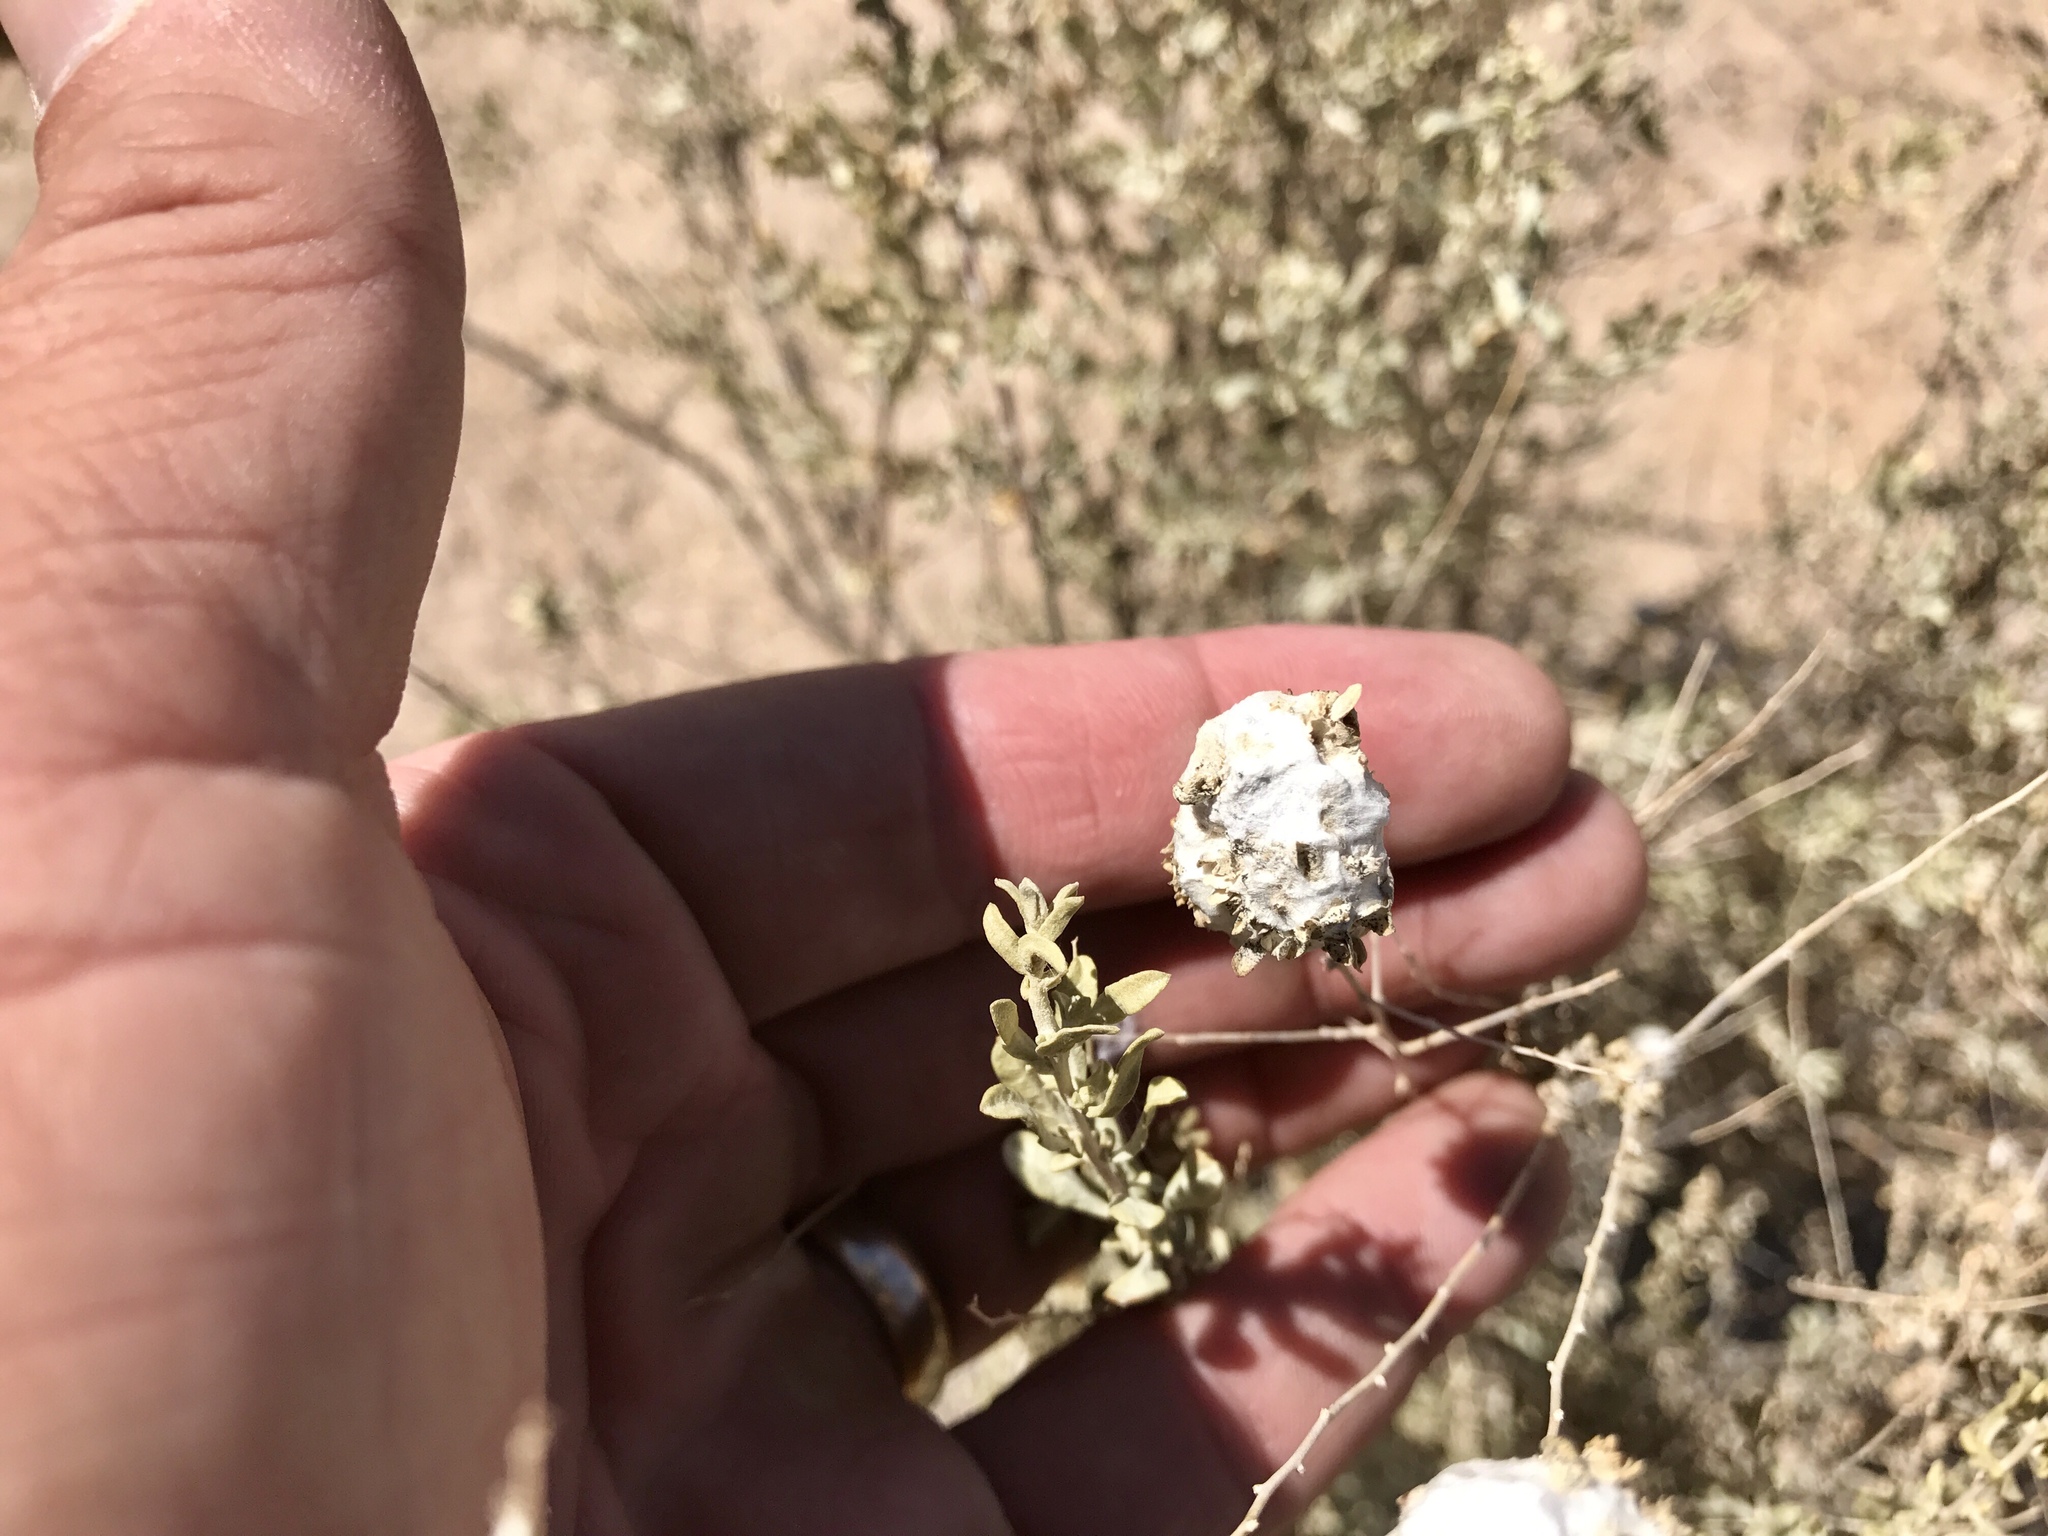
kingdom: Animalia
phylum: Arthropoda
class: Insecta
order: Diptera
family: Cecidomyiidae
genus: Asphondylia
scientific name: Asphondylia floccosa
